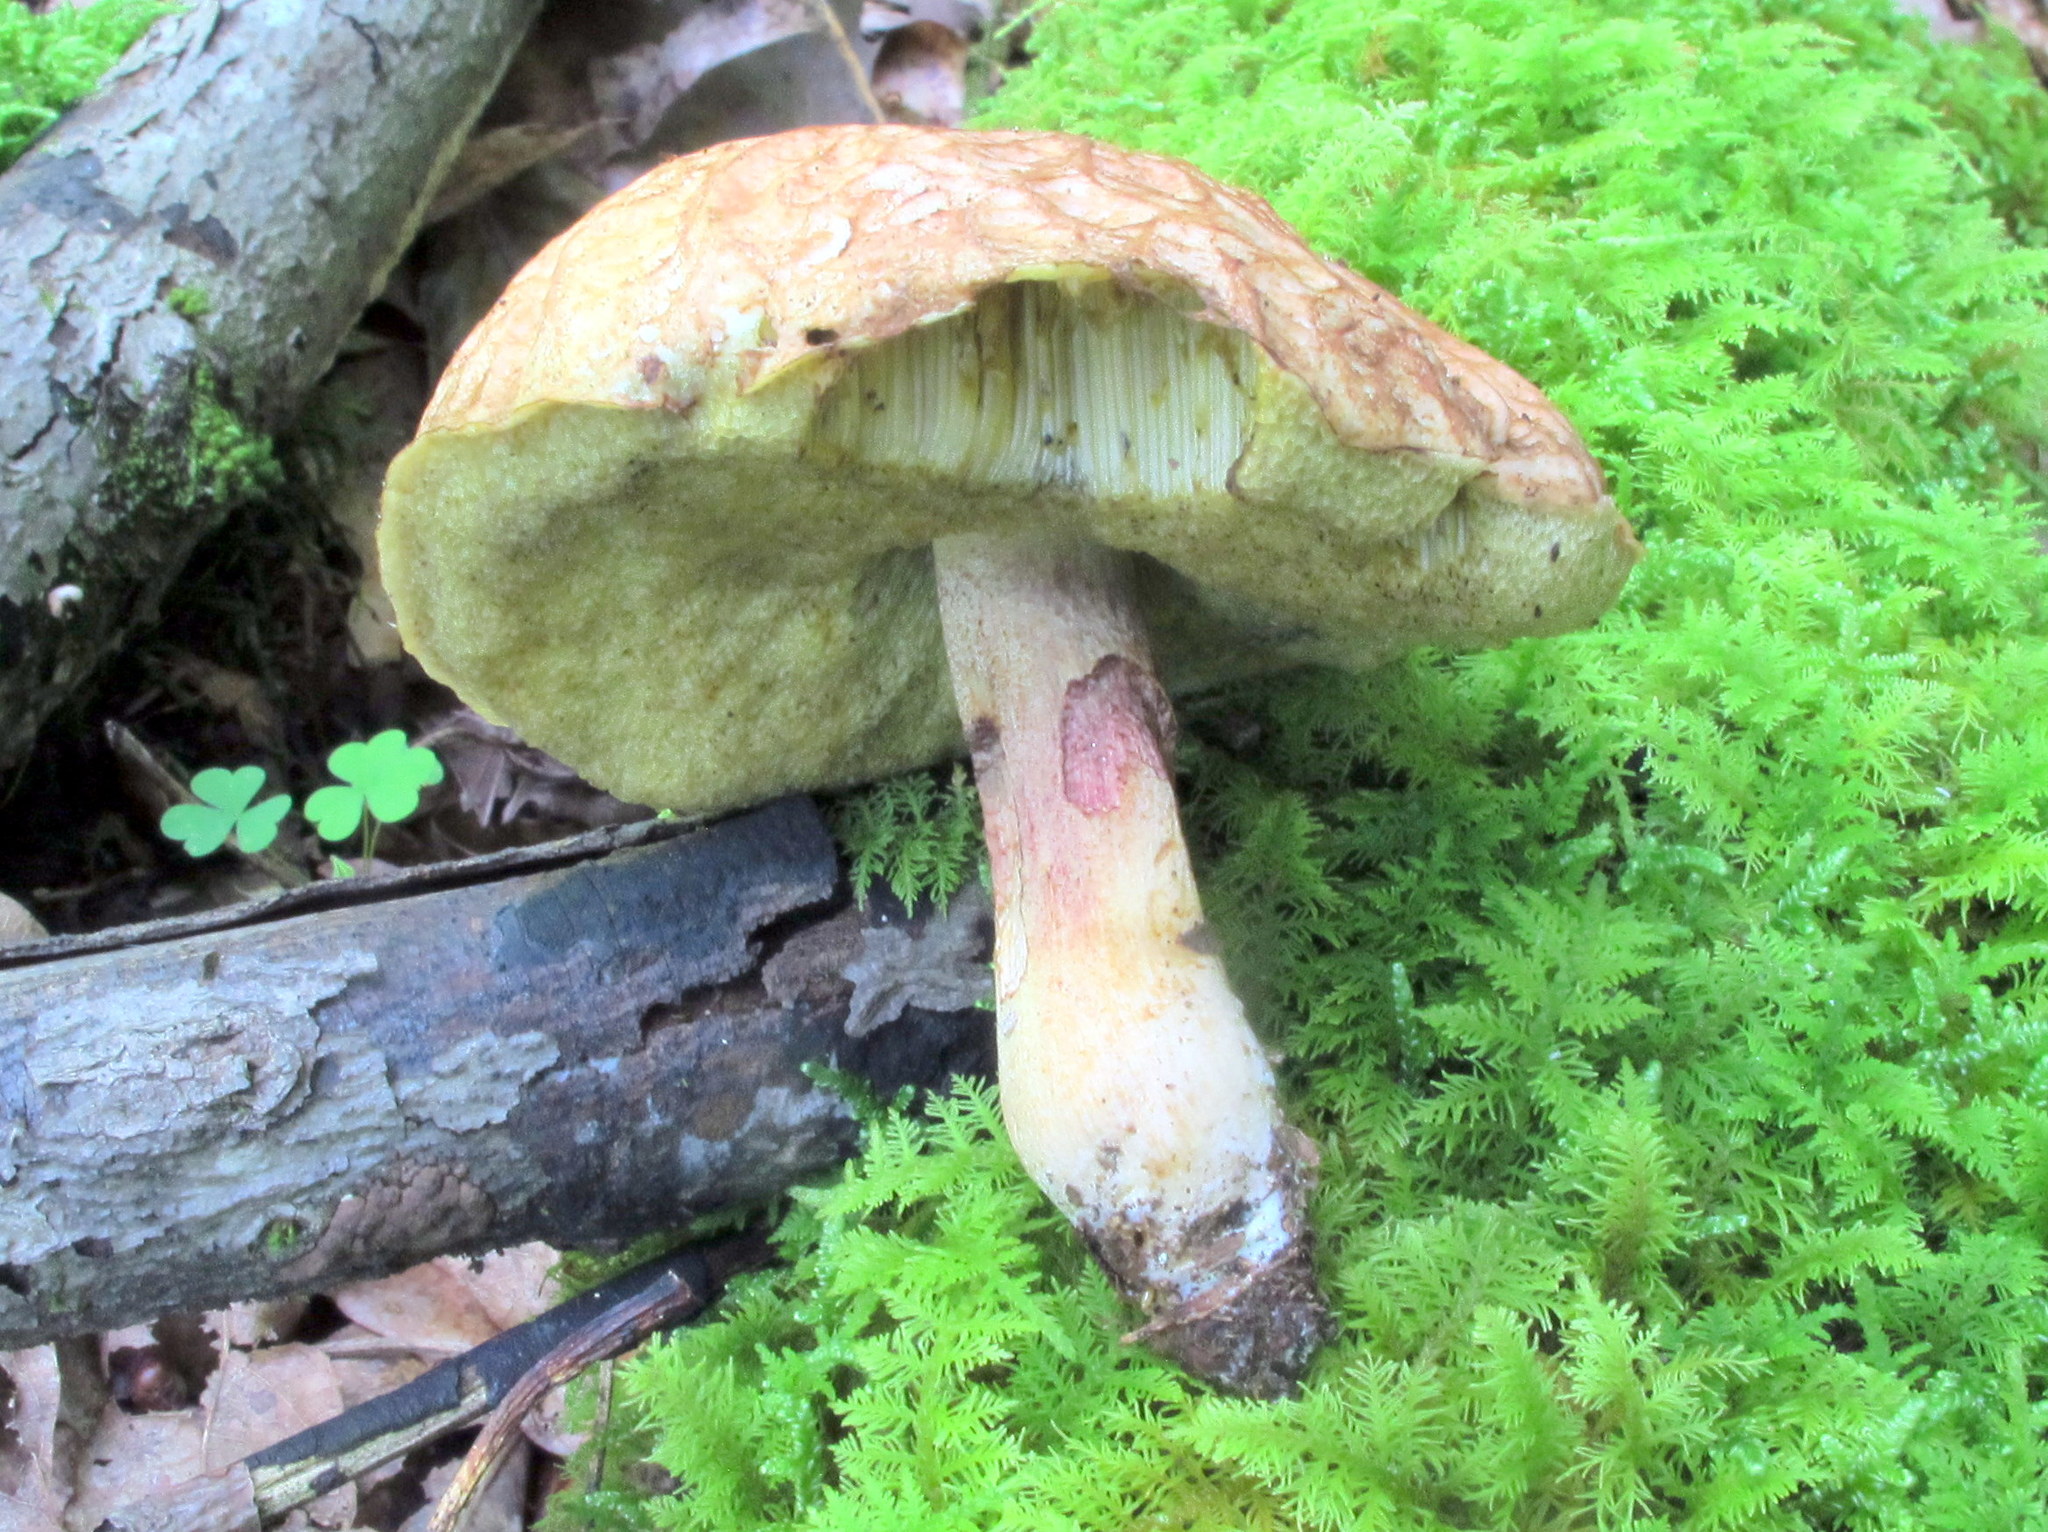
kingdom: Fungi
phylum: Basidiomycota
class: Agaricomycetes
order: Boletales
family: Boletaceae
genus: Hemileccinum
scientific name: Hemileccinum hortonii
